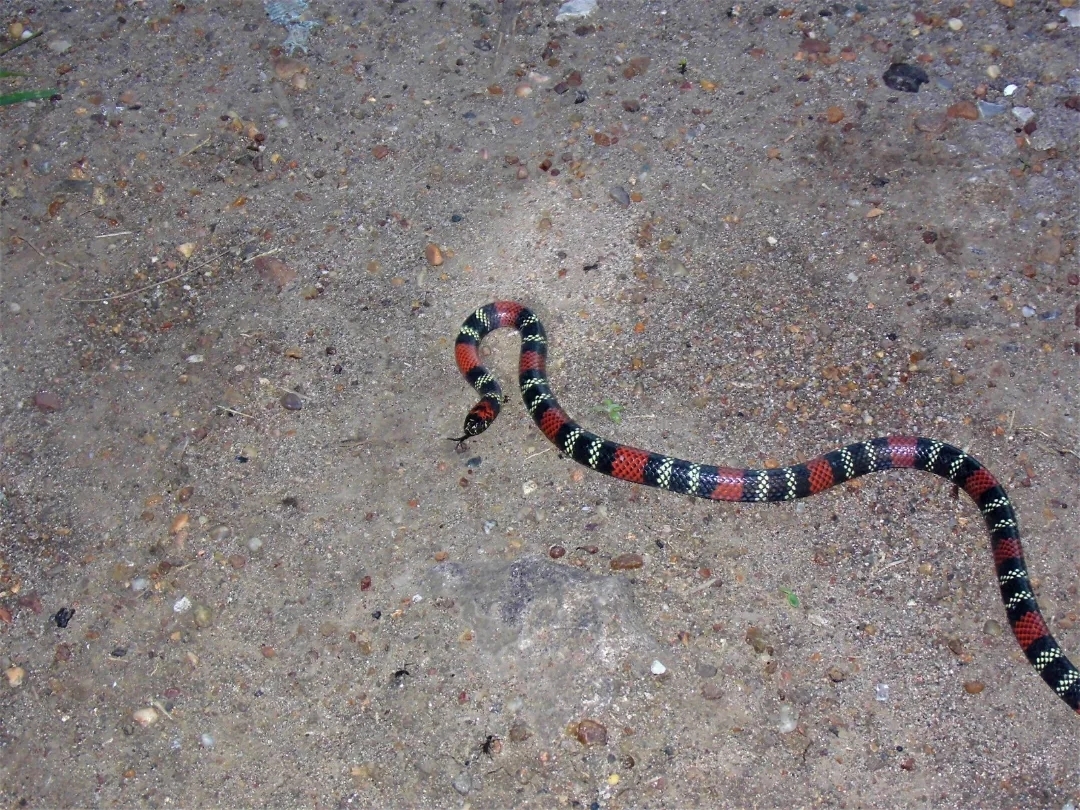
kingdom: Animalia
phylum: Chordata
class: Squamata
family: Elapidae
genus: Micrurus
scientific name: Micrurus altirostris
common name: Uruguayan coral snake
